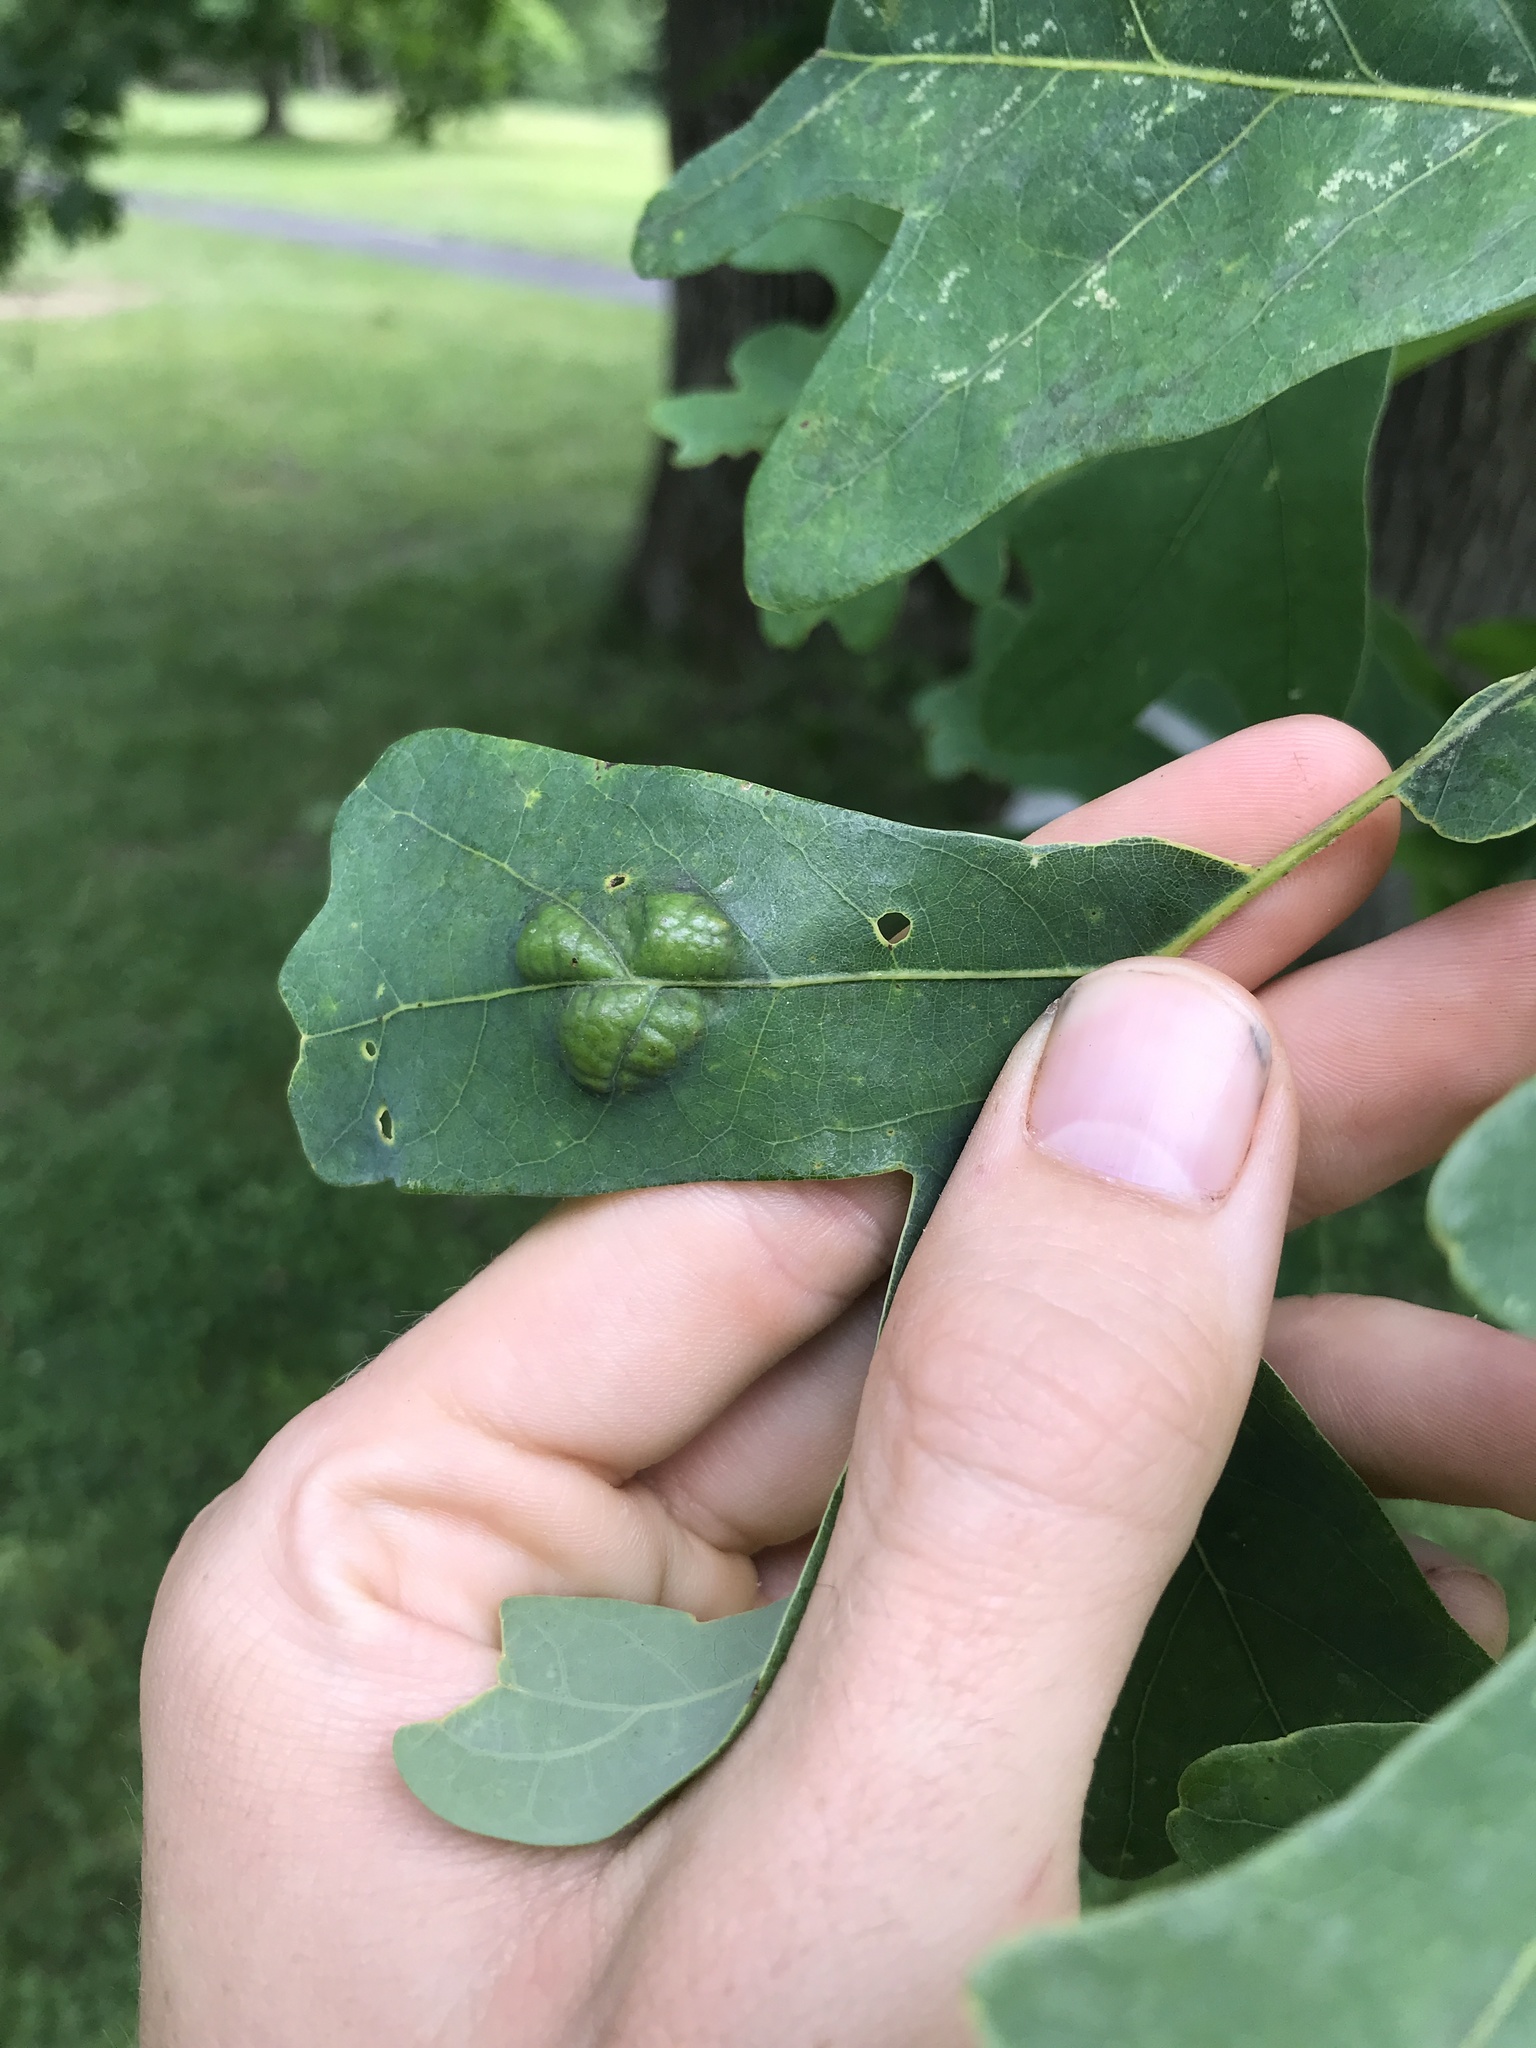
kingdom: Fungi
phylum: Ascomycota
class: Taphrinomycetes
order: Taphrinales
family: Taphrinaceae
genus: Taphrina
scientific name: Taphrina caerulescens
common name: Oak leaf blister
